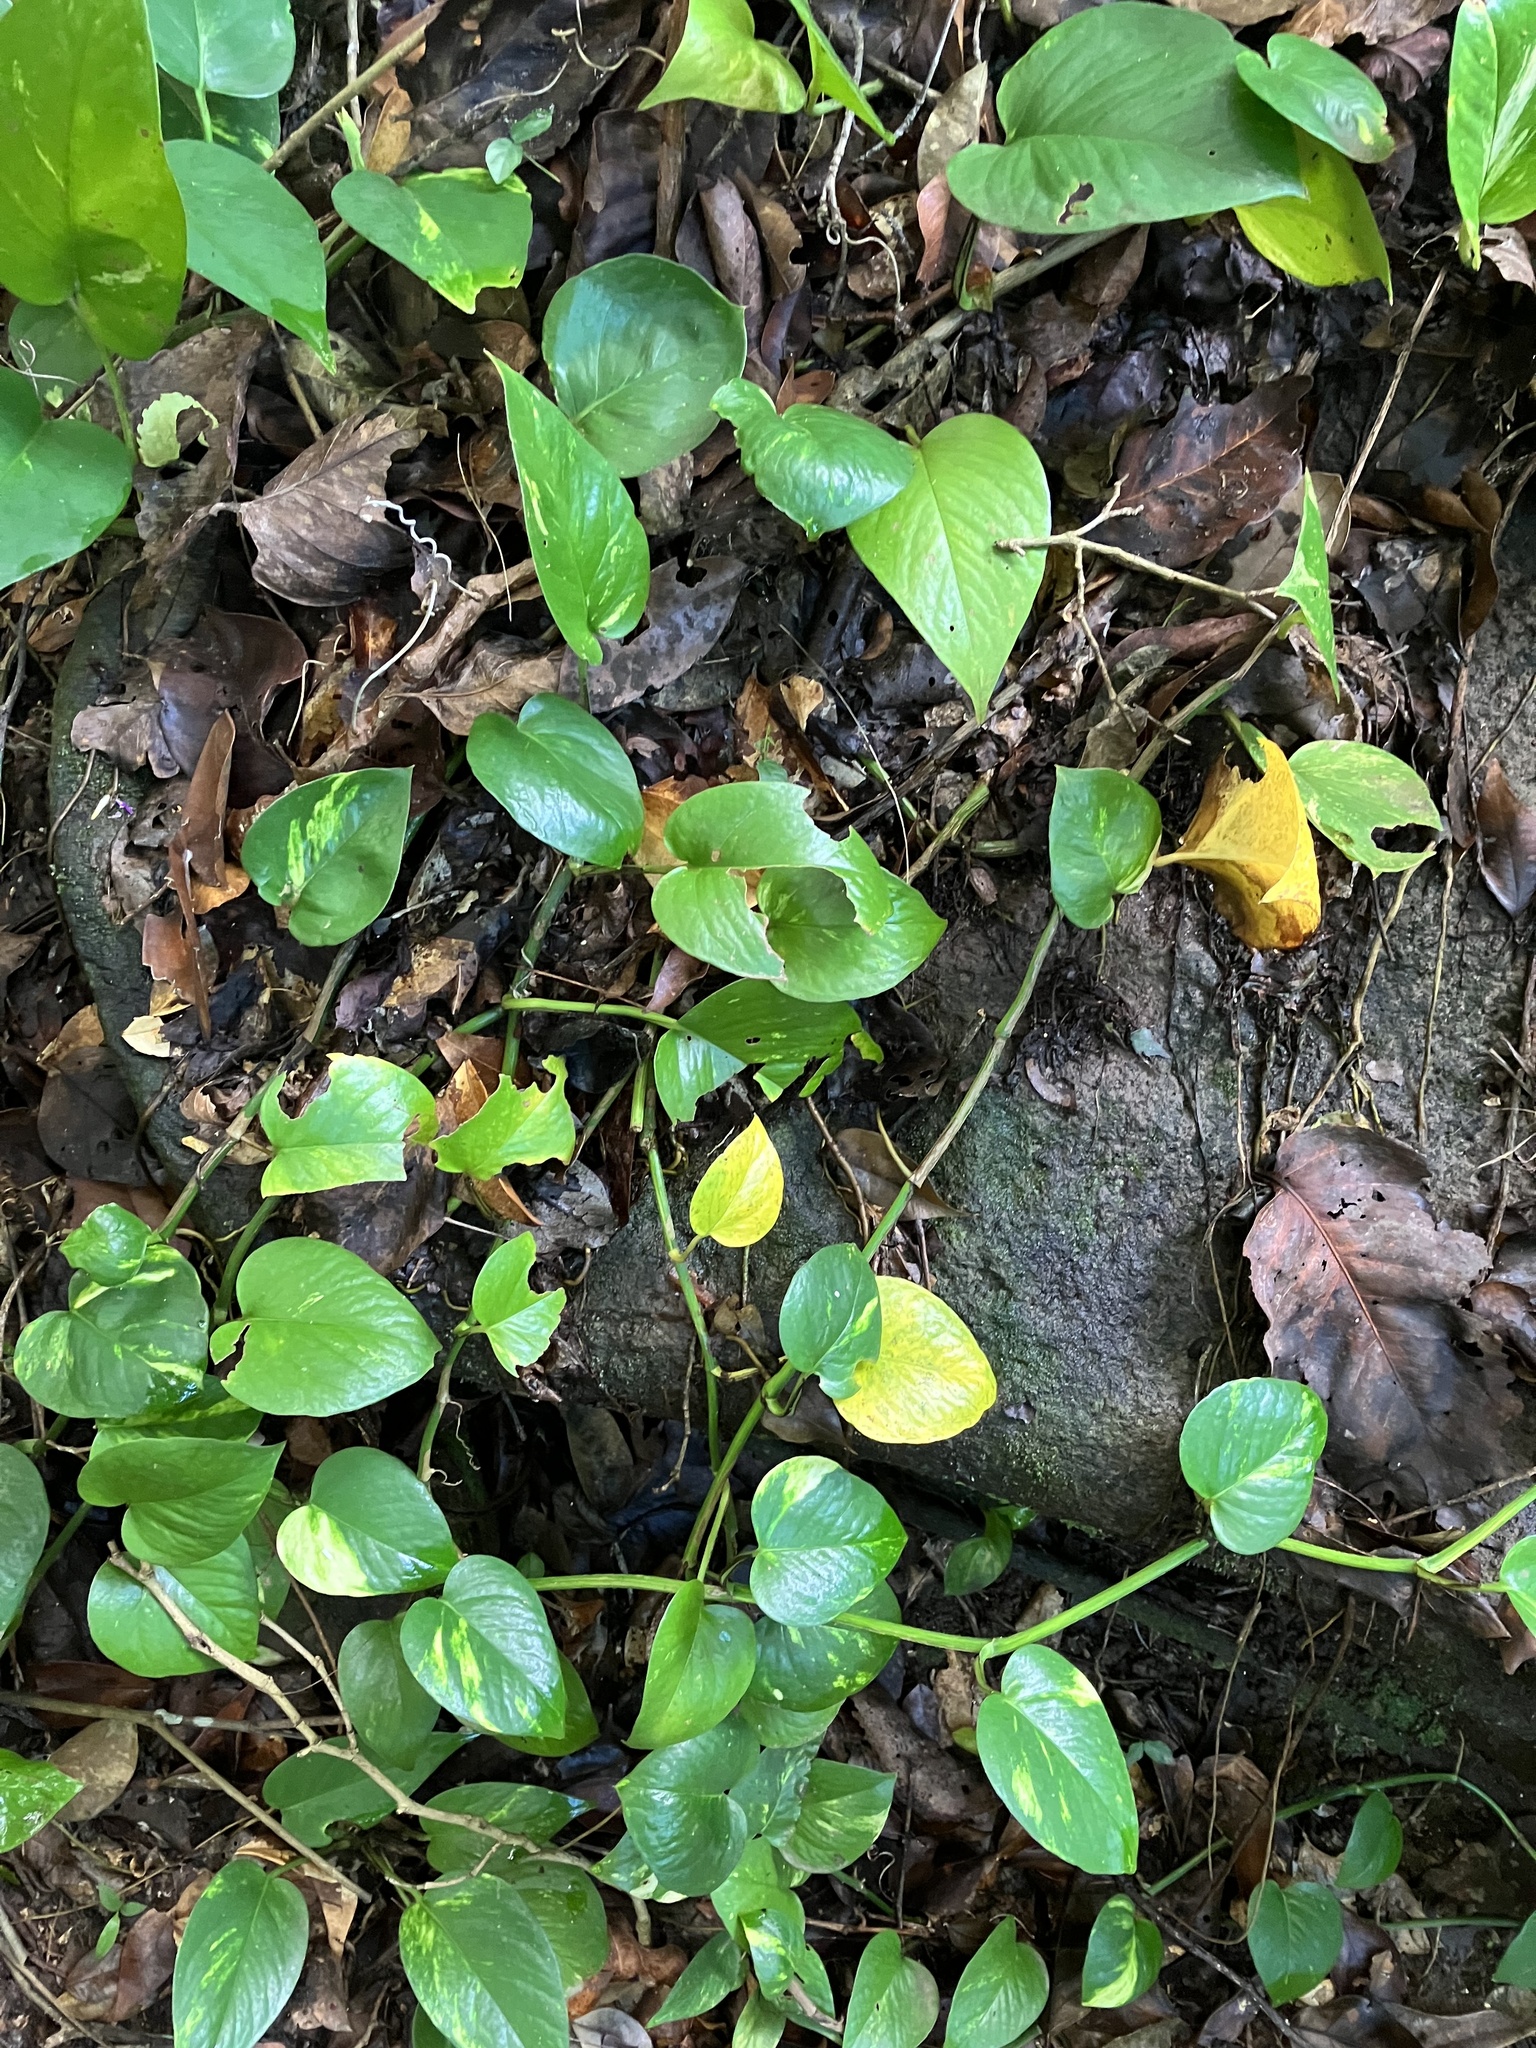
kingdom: Plantae
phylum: Tracheophyta
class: Liliopsida
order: Alismatales
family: Araceae
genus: Epipremnum
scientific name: Epipremnum aureum
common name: Golden hunter's-robe
